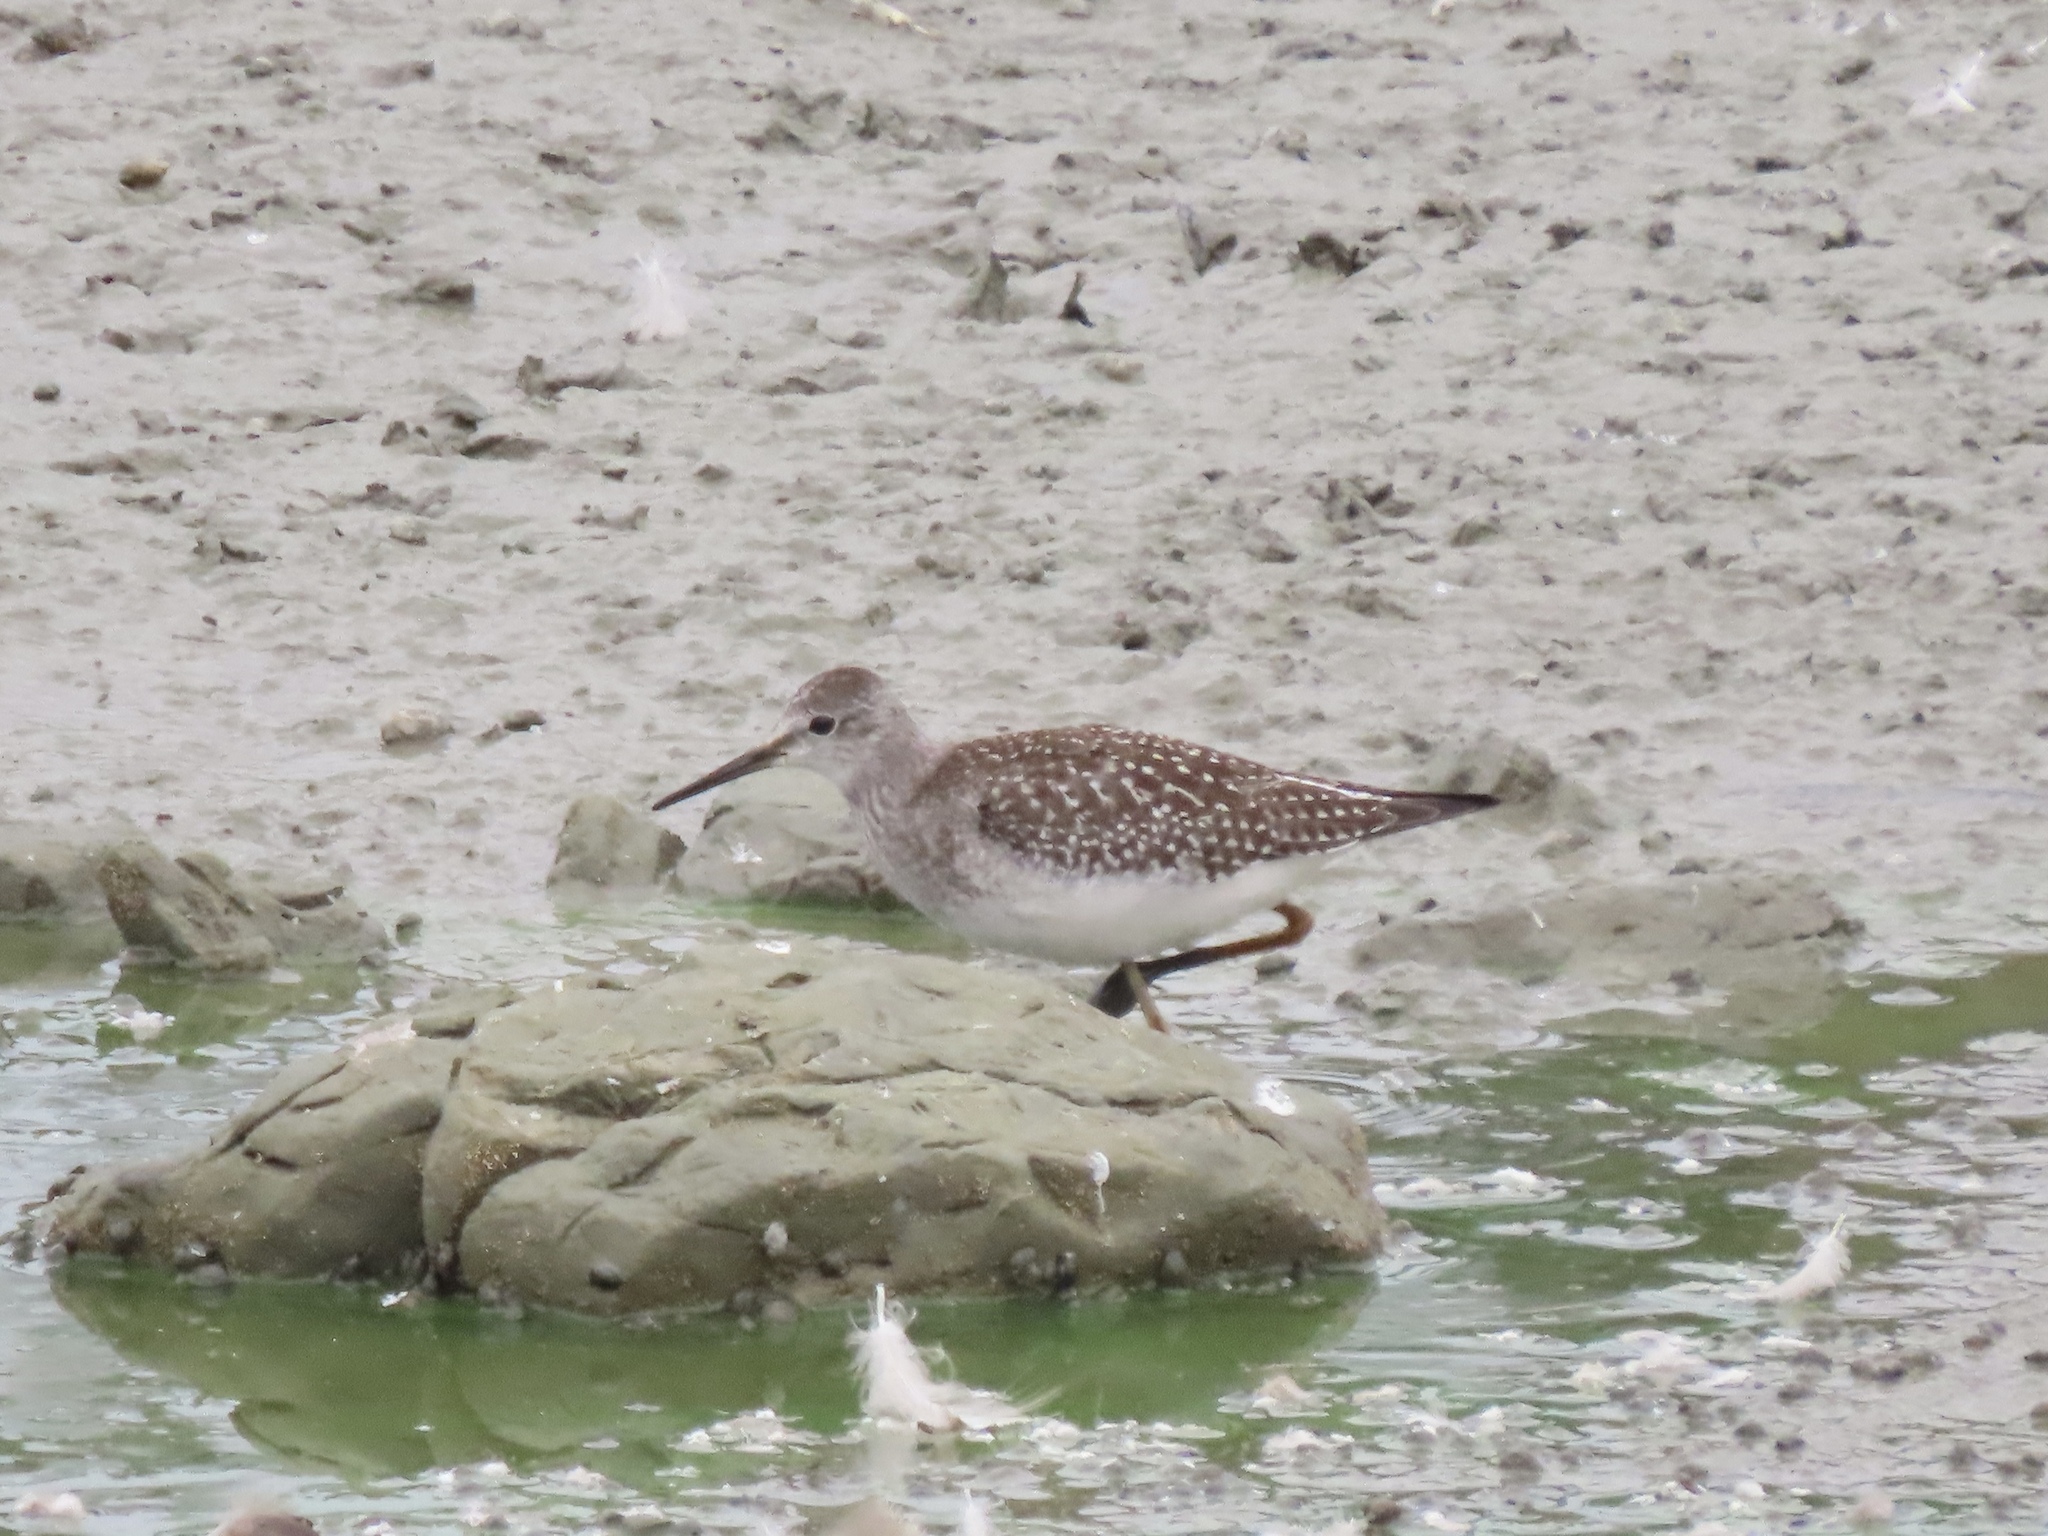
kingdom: Animalia
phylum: Chordata
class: Aves
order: Charadriiformes
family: Scolopacidae
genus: Tringa
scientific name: Tringa flavipes
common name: Lesser yellowlegs
